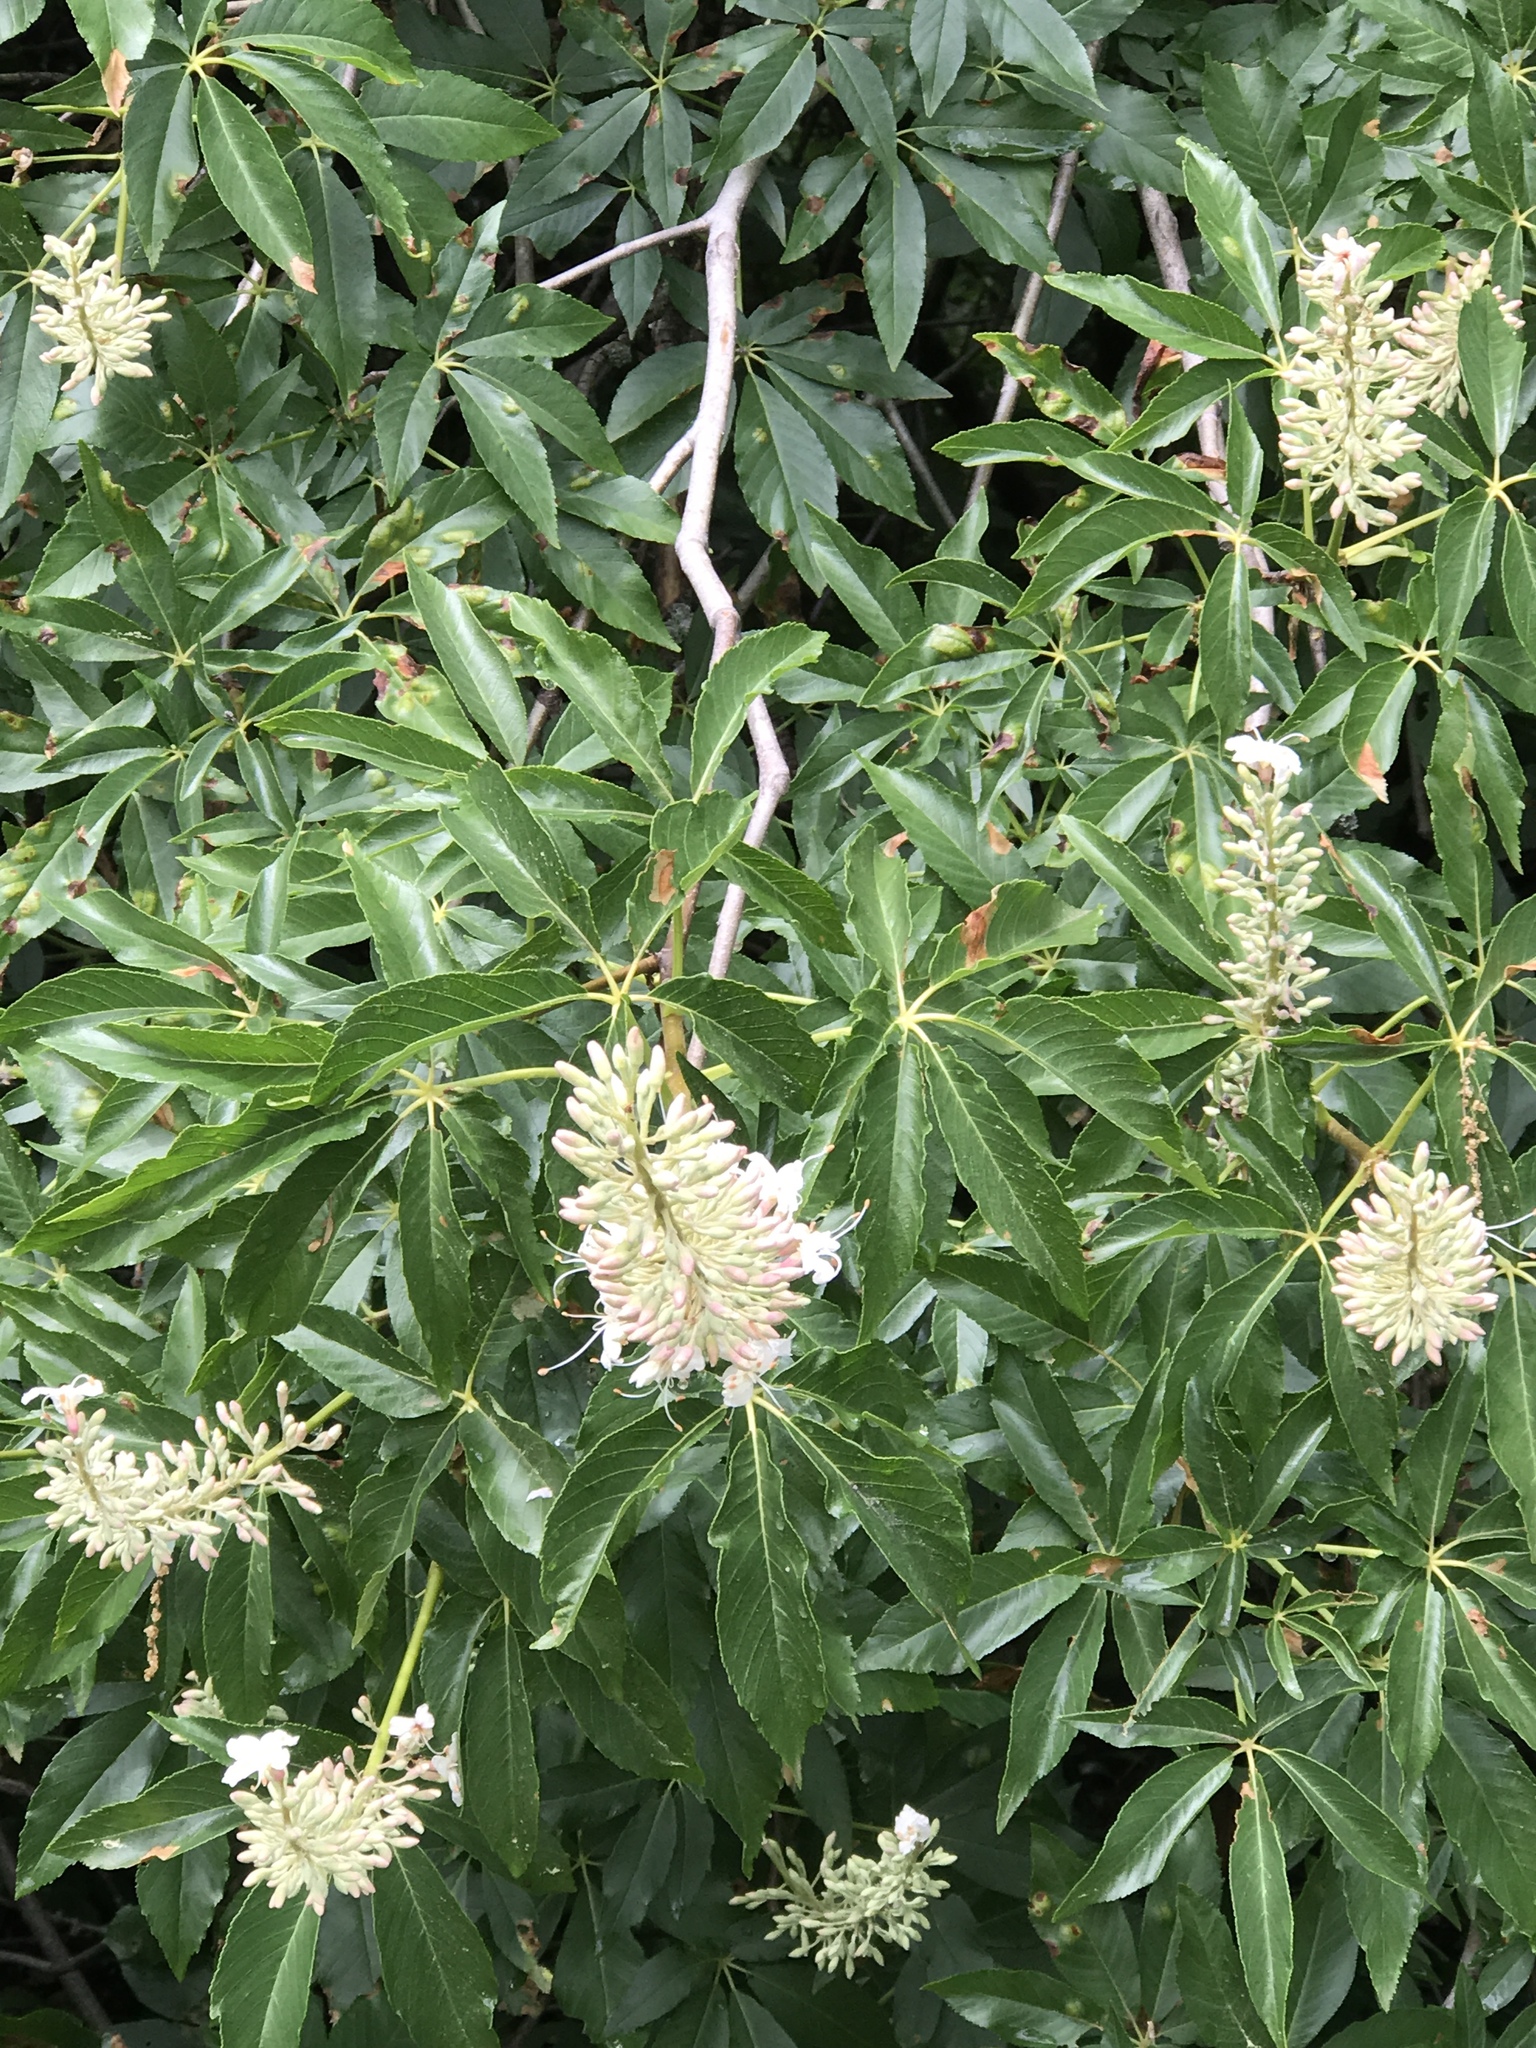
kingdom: Plantae
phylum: Tracheophyta
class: Magnoliopsida
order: Sapindales
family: Sapindaceae
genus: Aesculus
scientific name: Aesculus californica
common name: California buckeye
